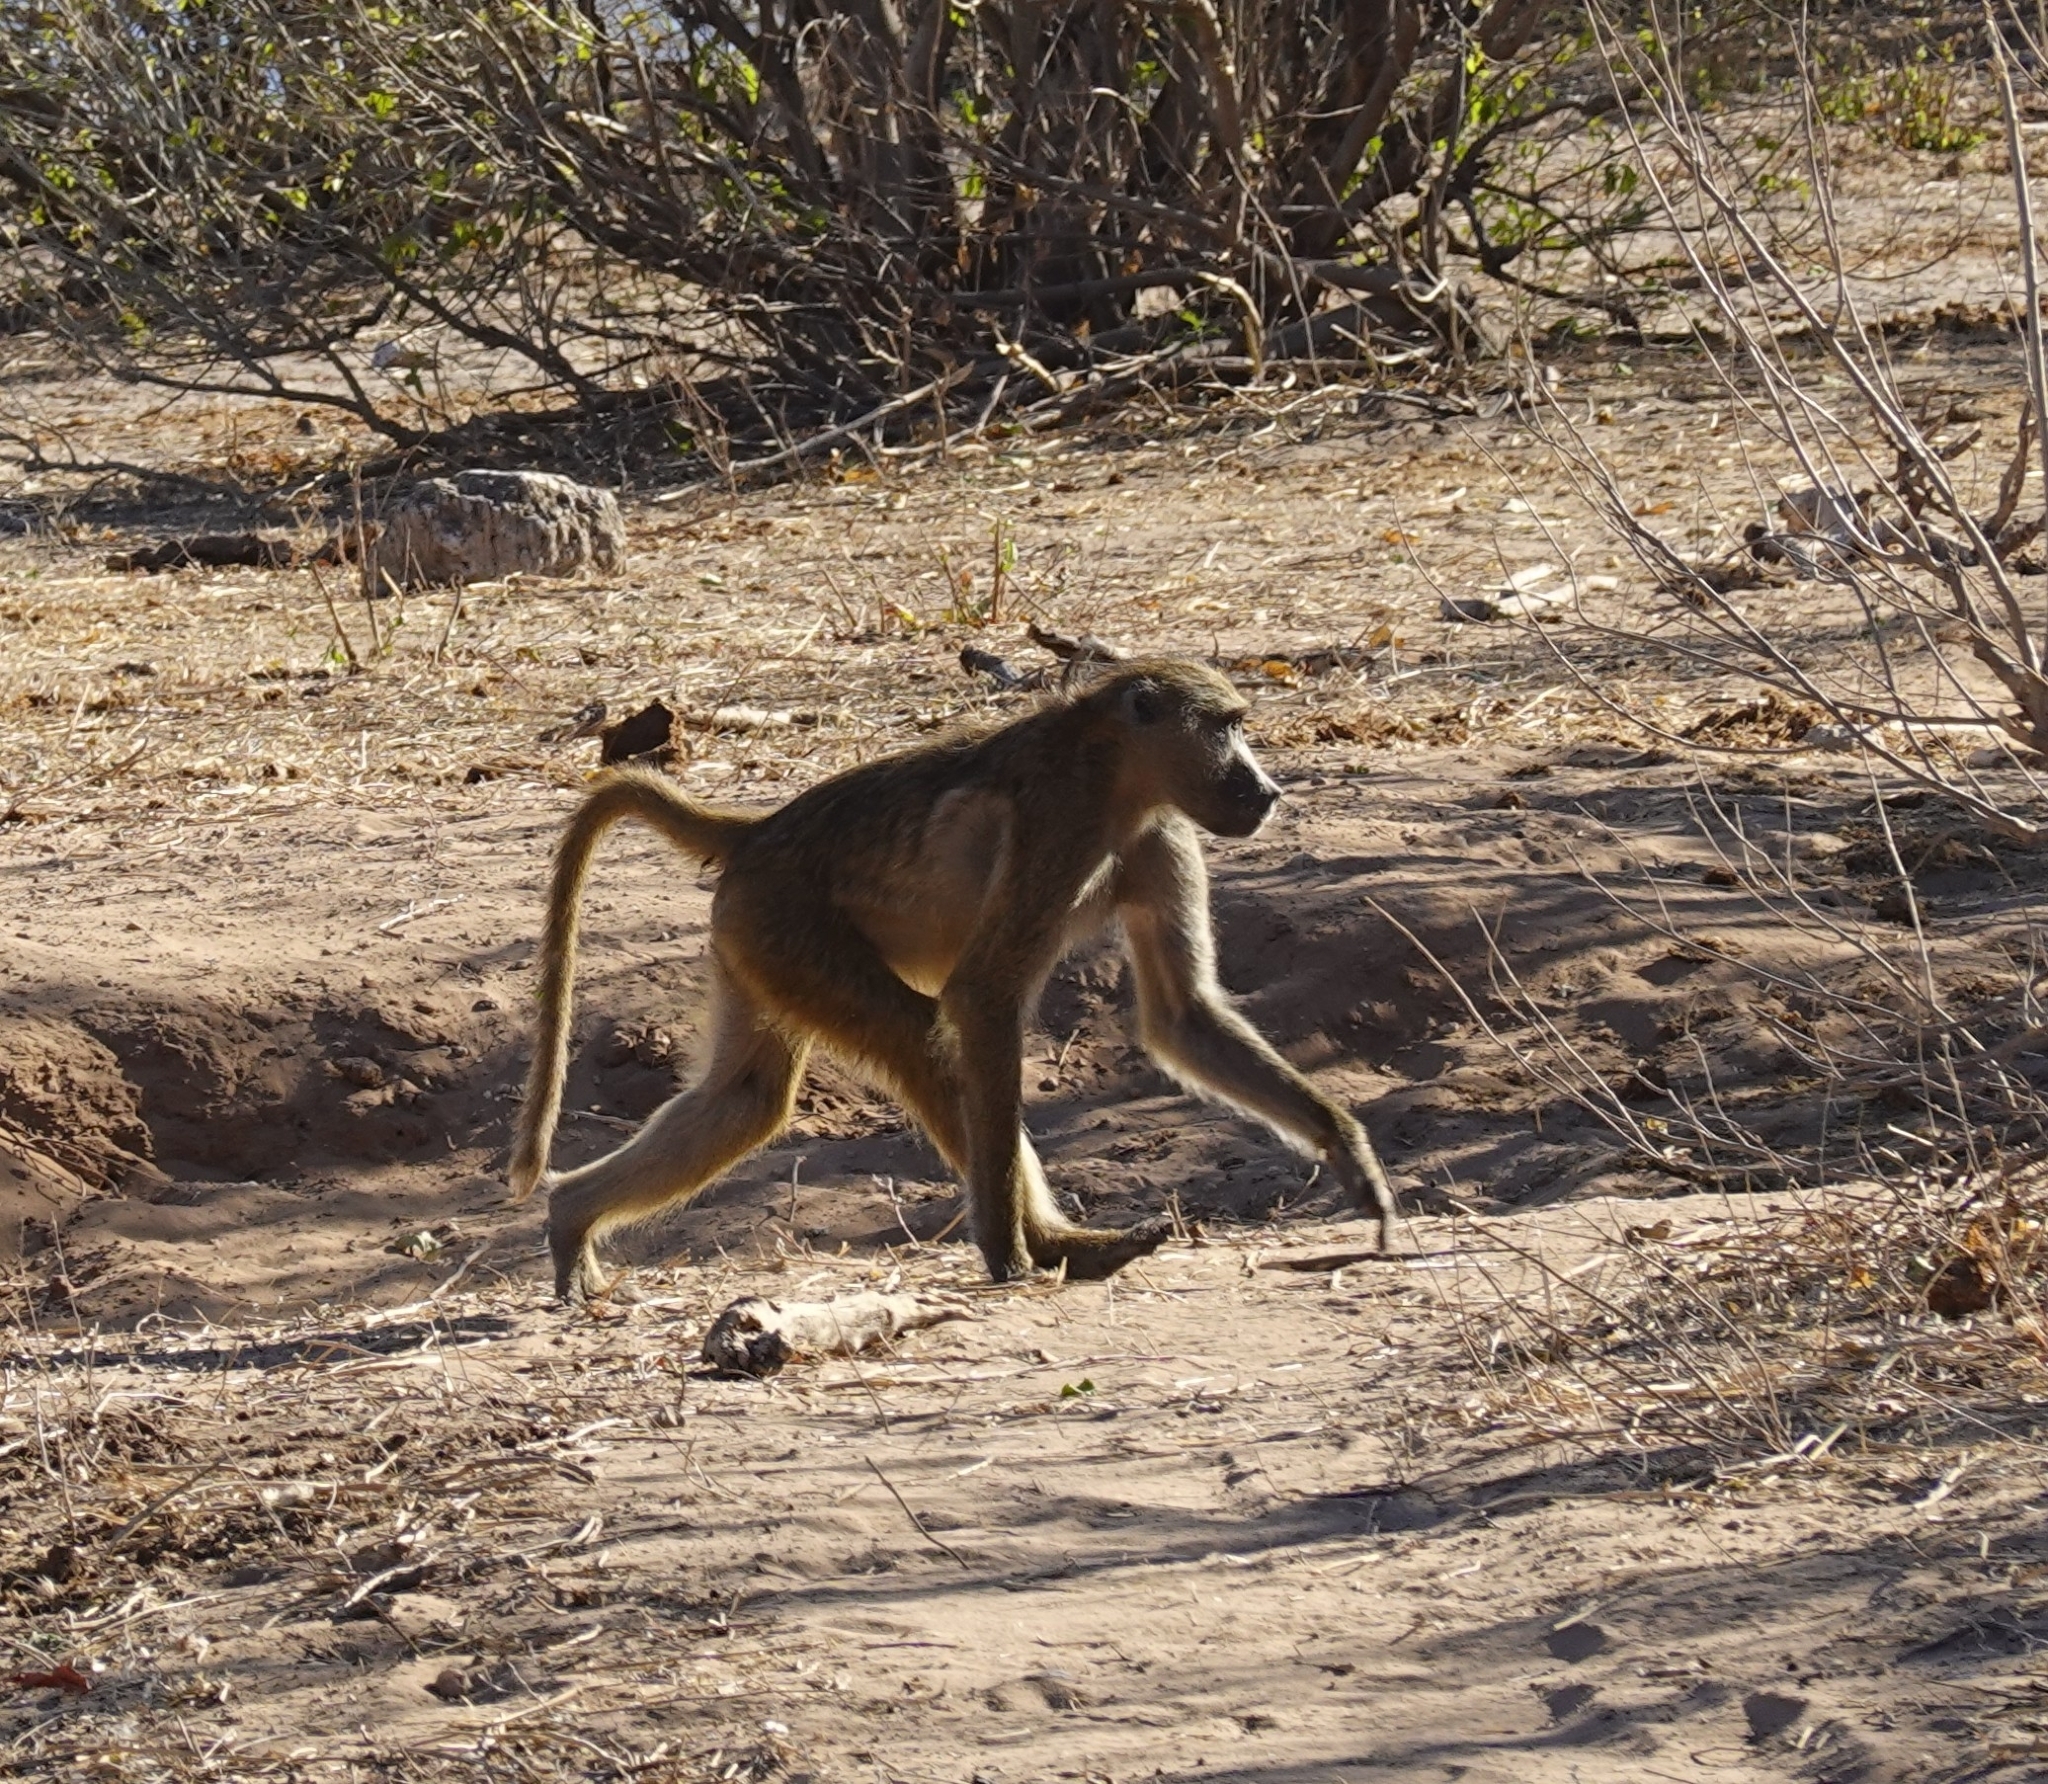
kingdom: Animalia
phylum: Chordata
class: Mammalia
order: Primates
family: Cercopithecidae
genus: Papio
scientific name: Papio ursinus
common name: Chacma baboon
